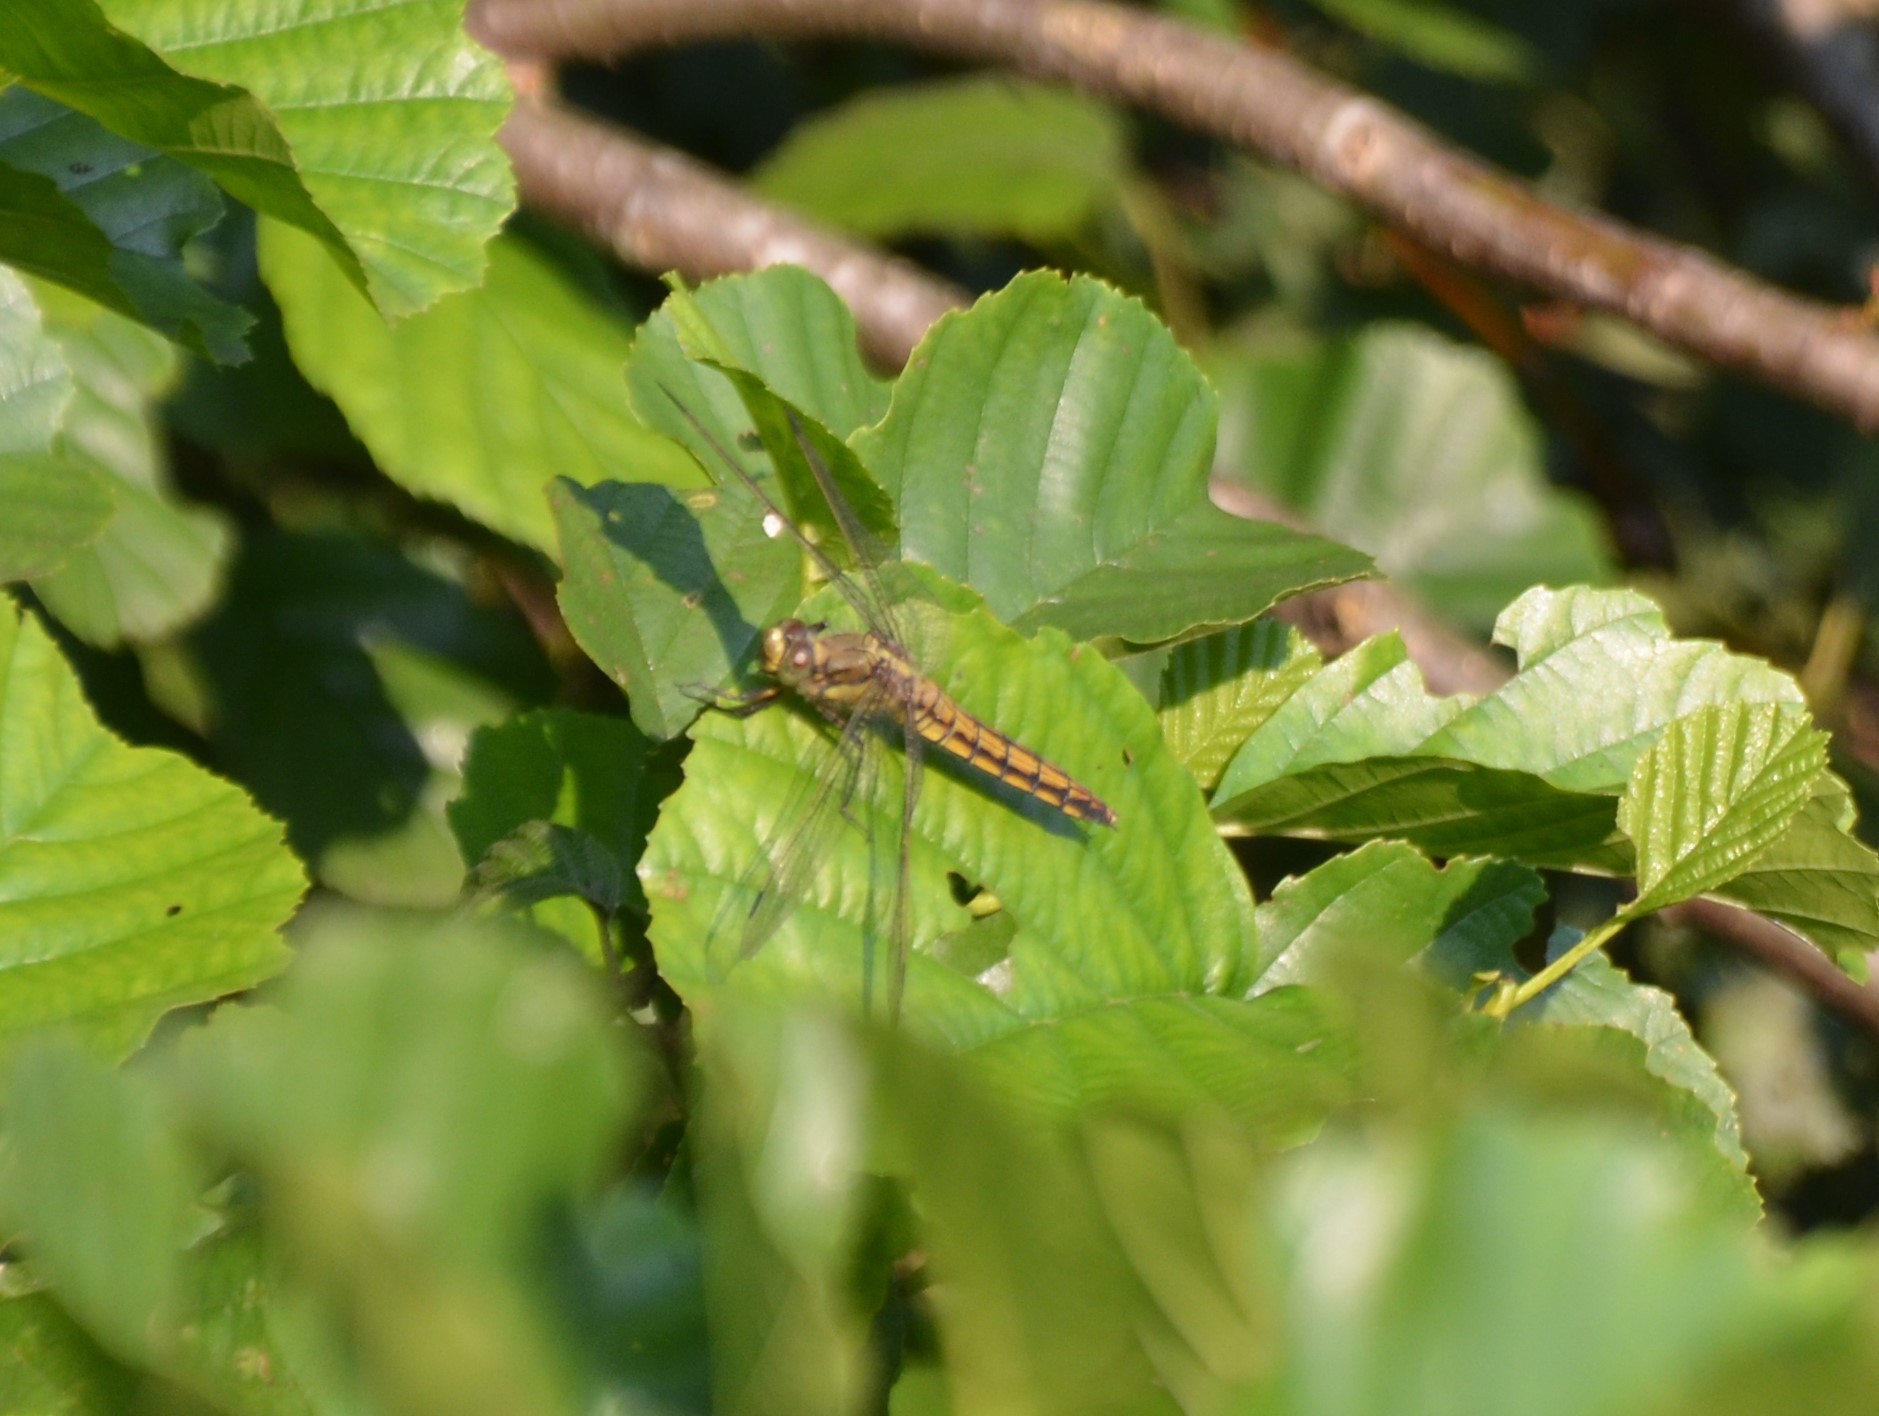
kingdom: Animalia
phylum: Arthropoda
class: Insecta
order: Odonata
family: Libellulidae
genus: Orthetrum
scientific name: Orthetrum cancellatum
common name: Black-tailed skimmer
